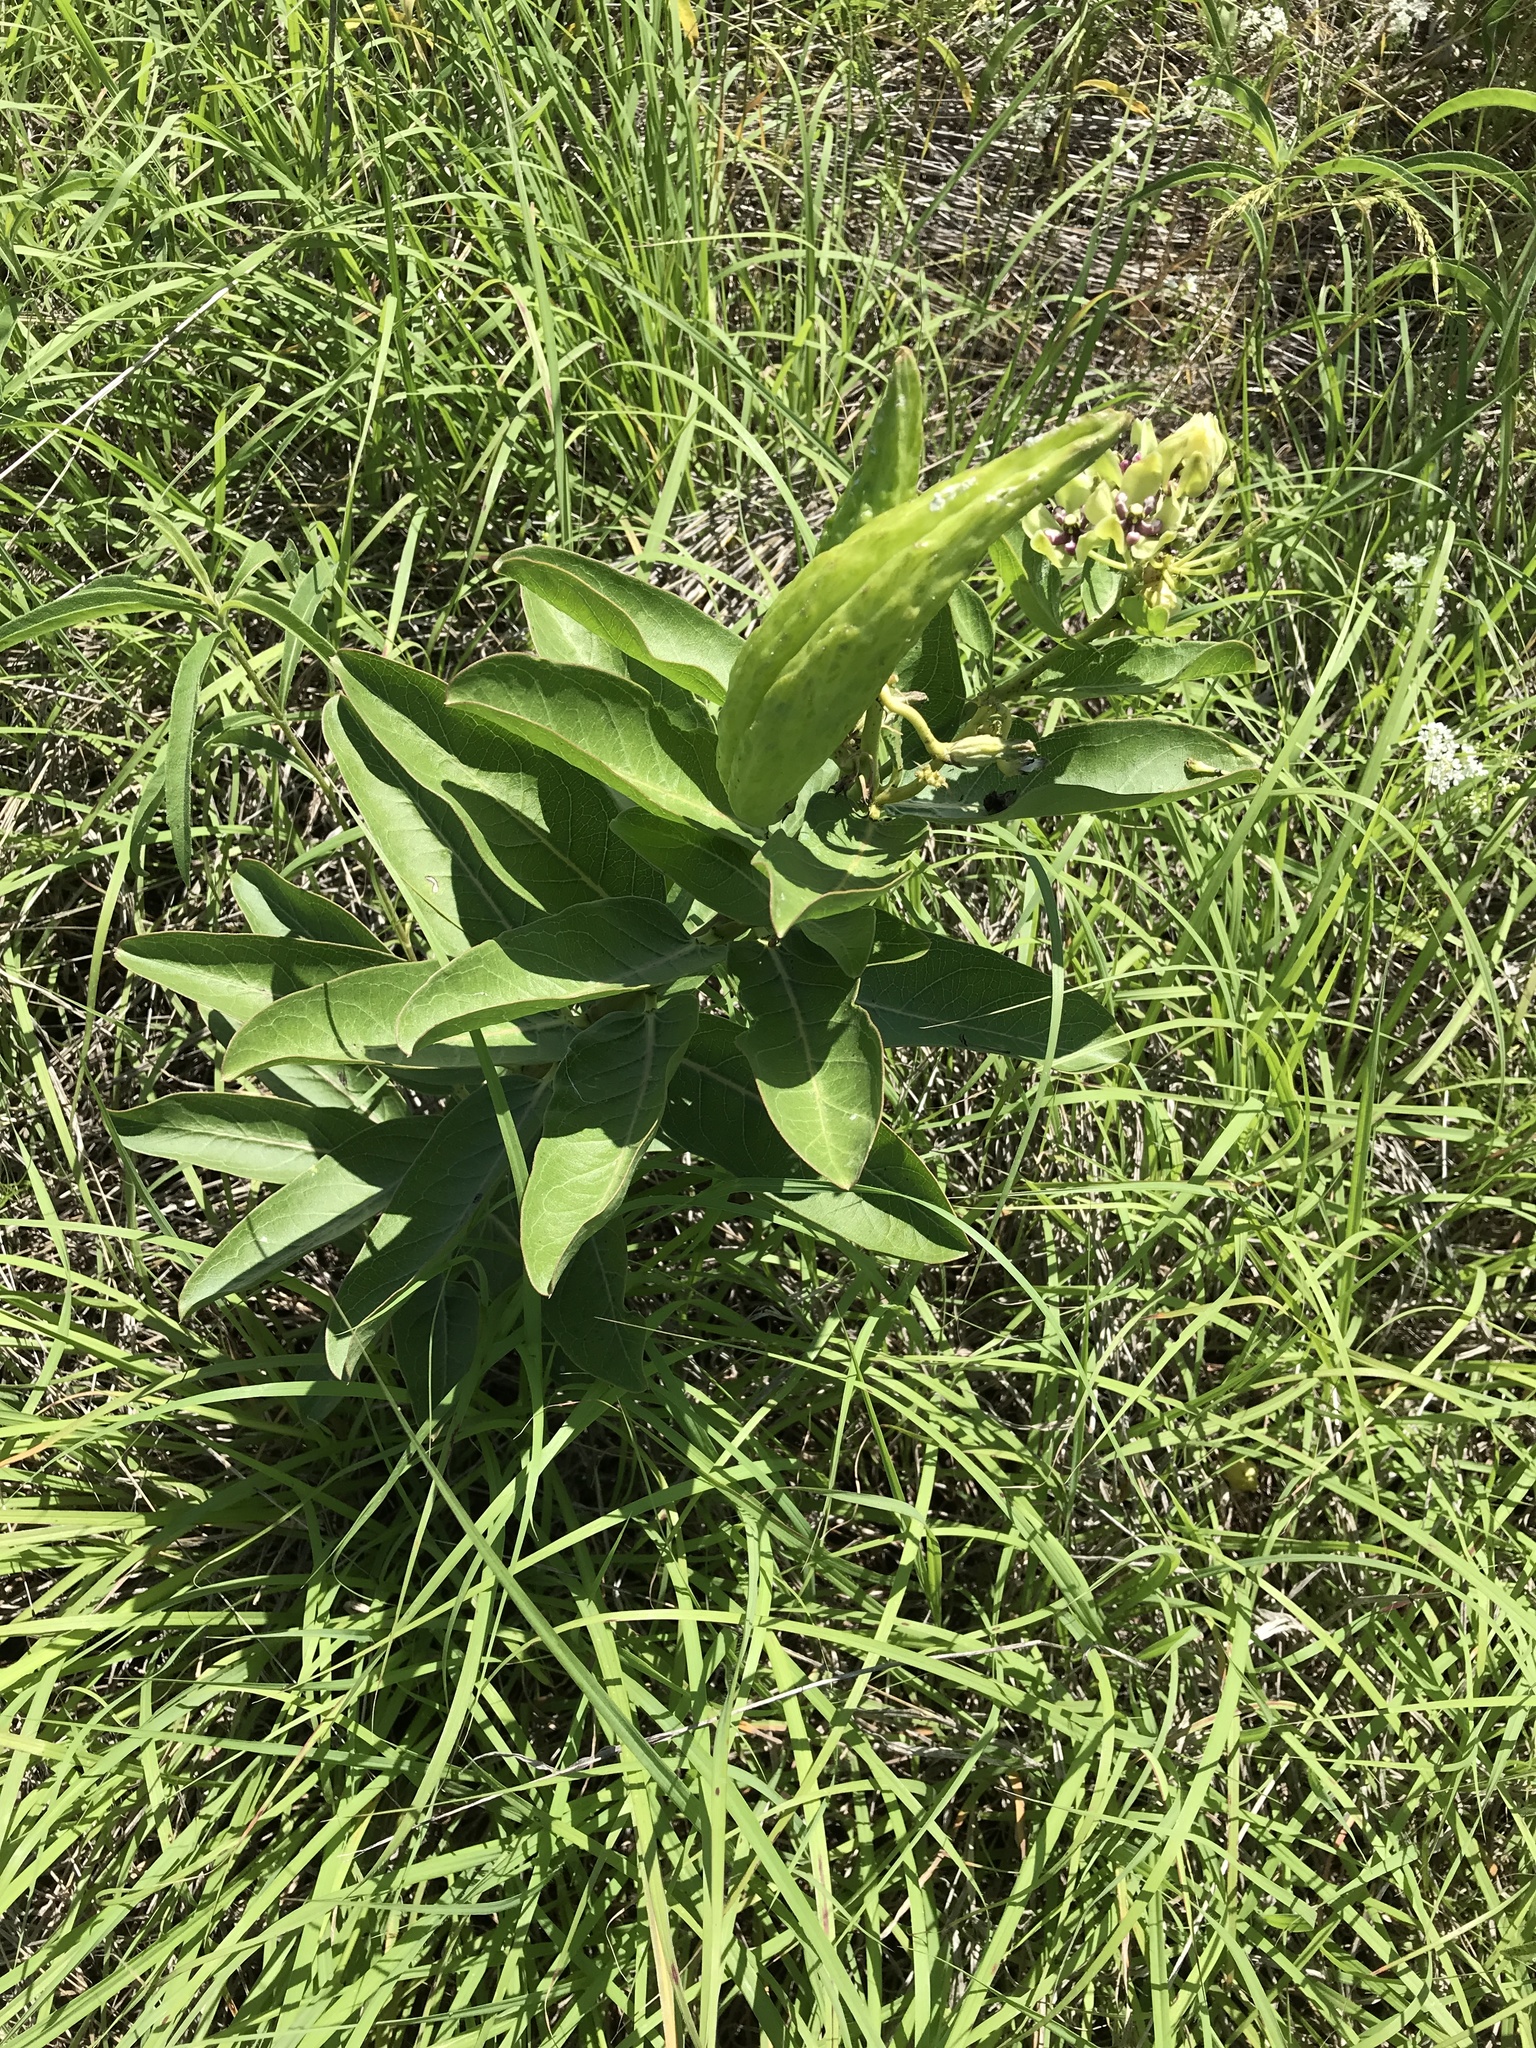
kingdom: Plantae
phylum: Tracheophyta
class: Magnoliopsida
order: Gentianales
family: Apocynaceae
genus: Asclepias
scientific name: Asclepias viridis
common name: Antelope-horns
